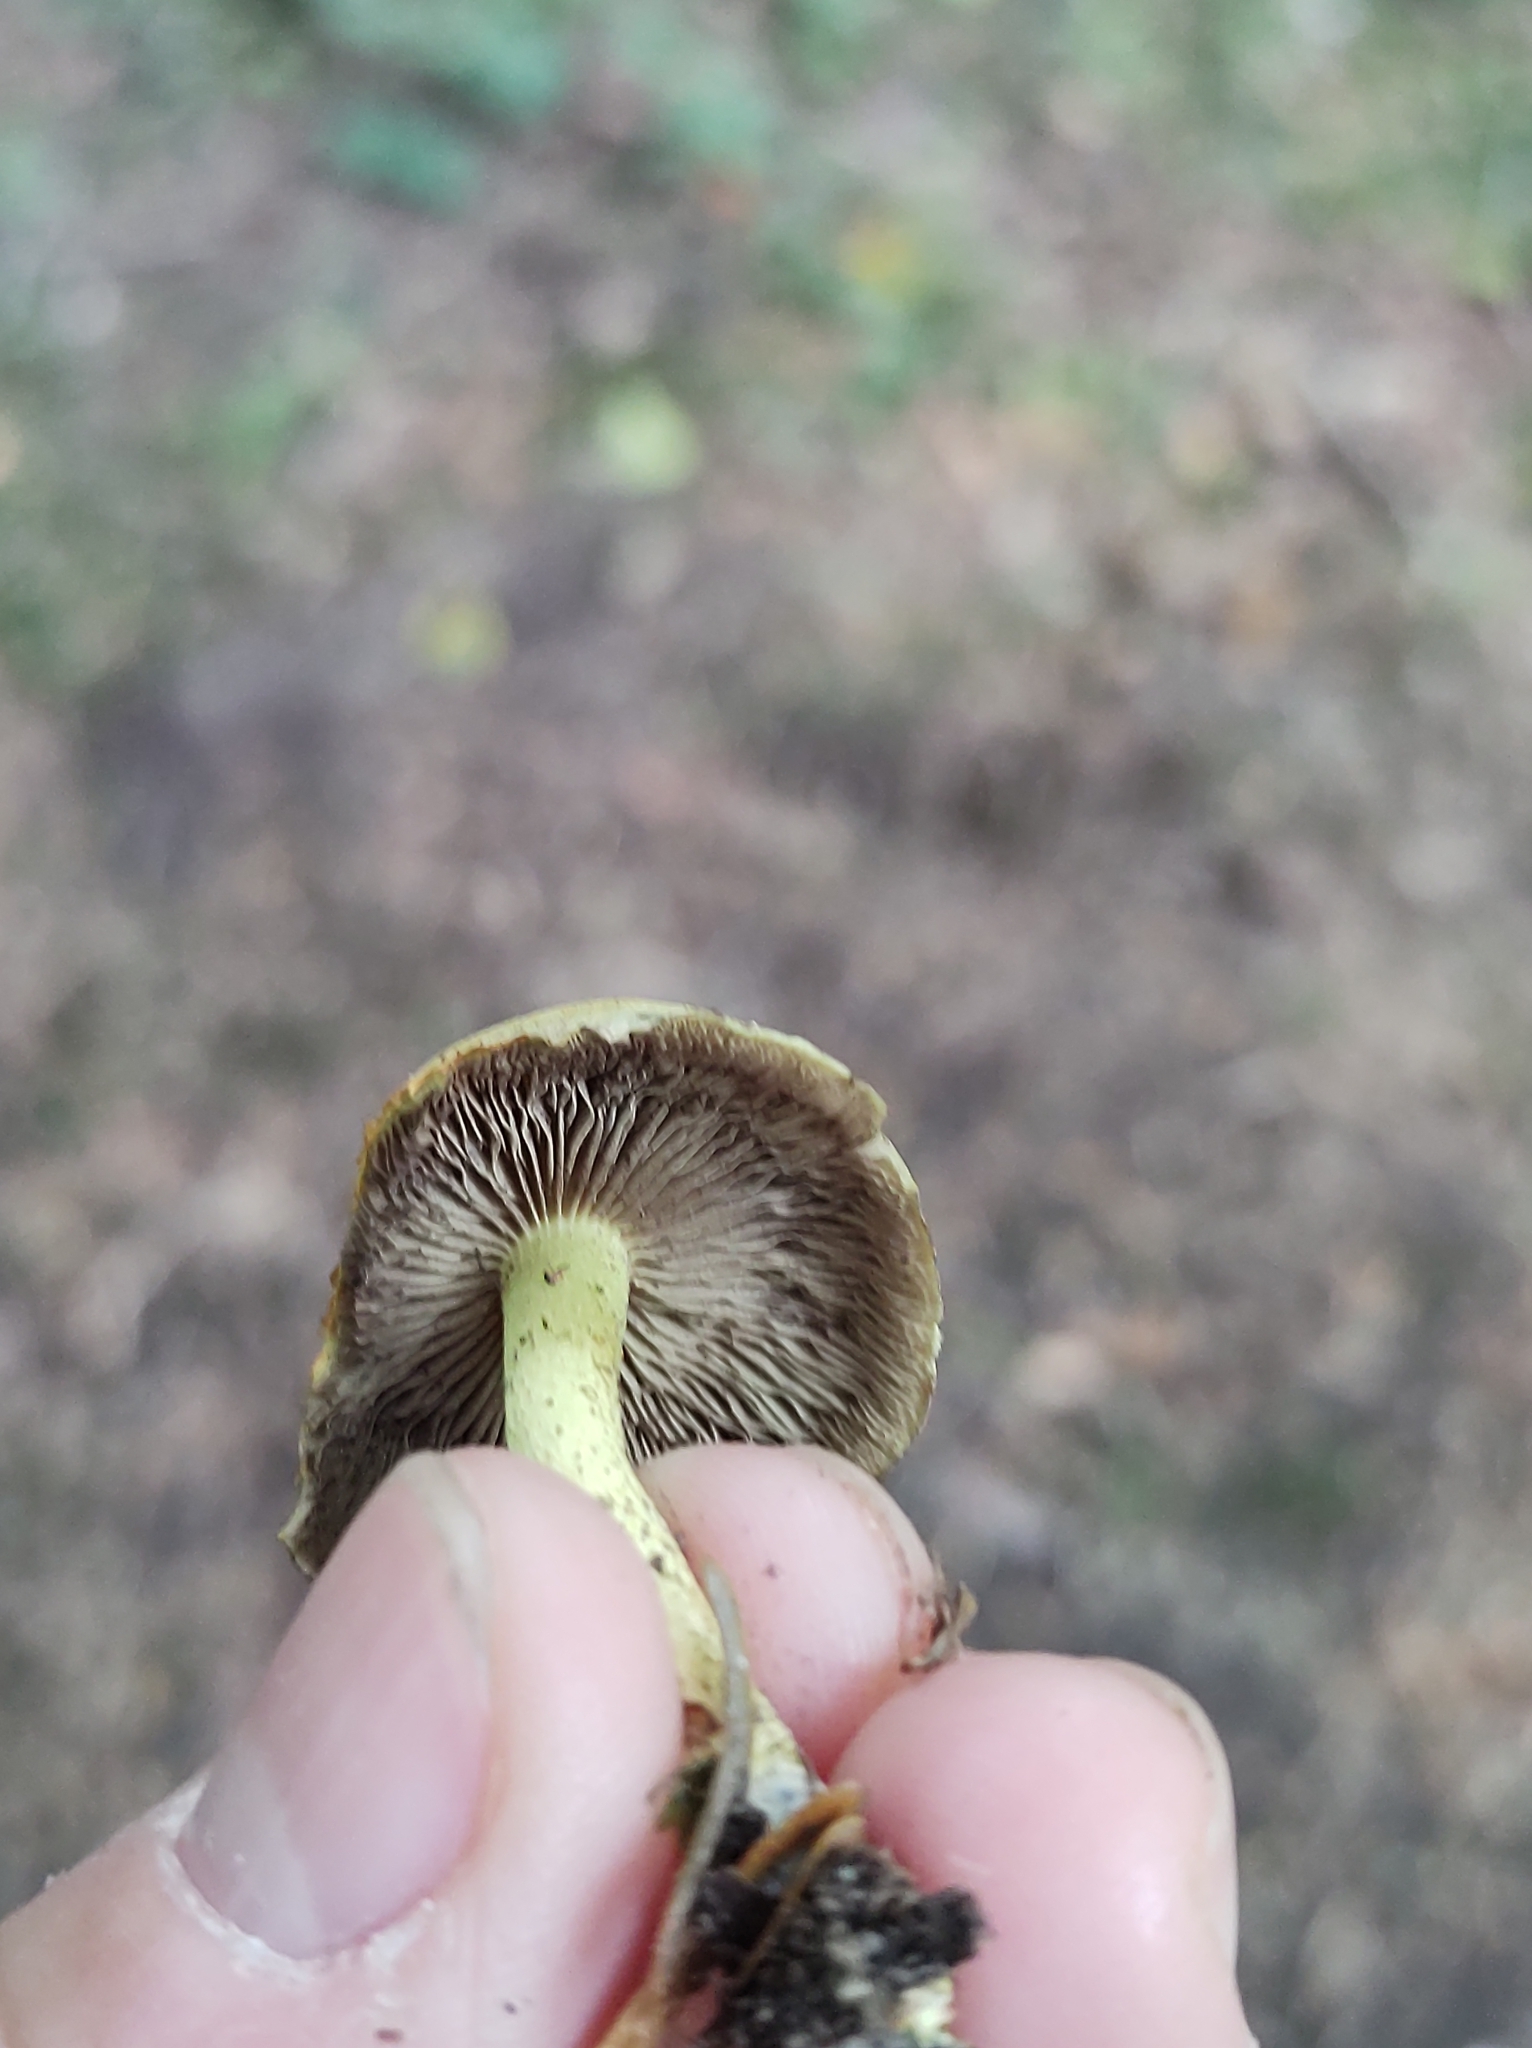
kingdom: Fungi
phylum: Basidiomycota
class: Agaricomycetes
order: Agaricales
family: Strophariaceae
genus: Hypholoma
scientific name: Hypholoma fasciculare
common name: Sulphur tuft
